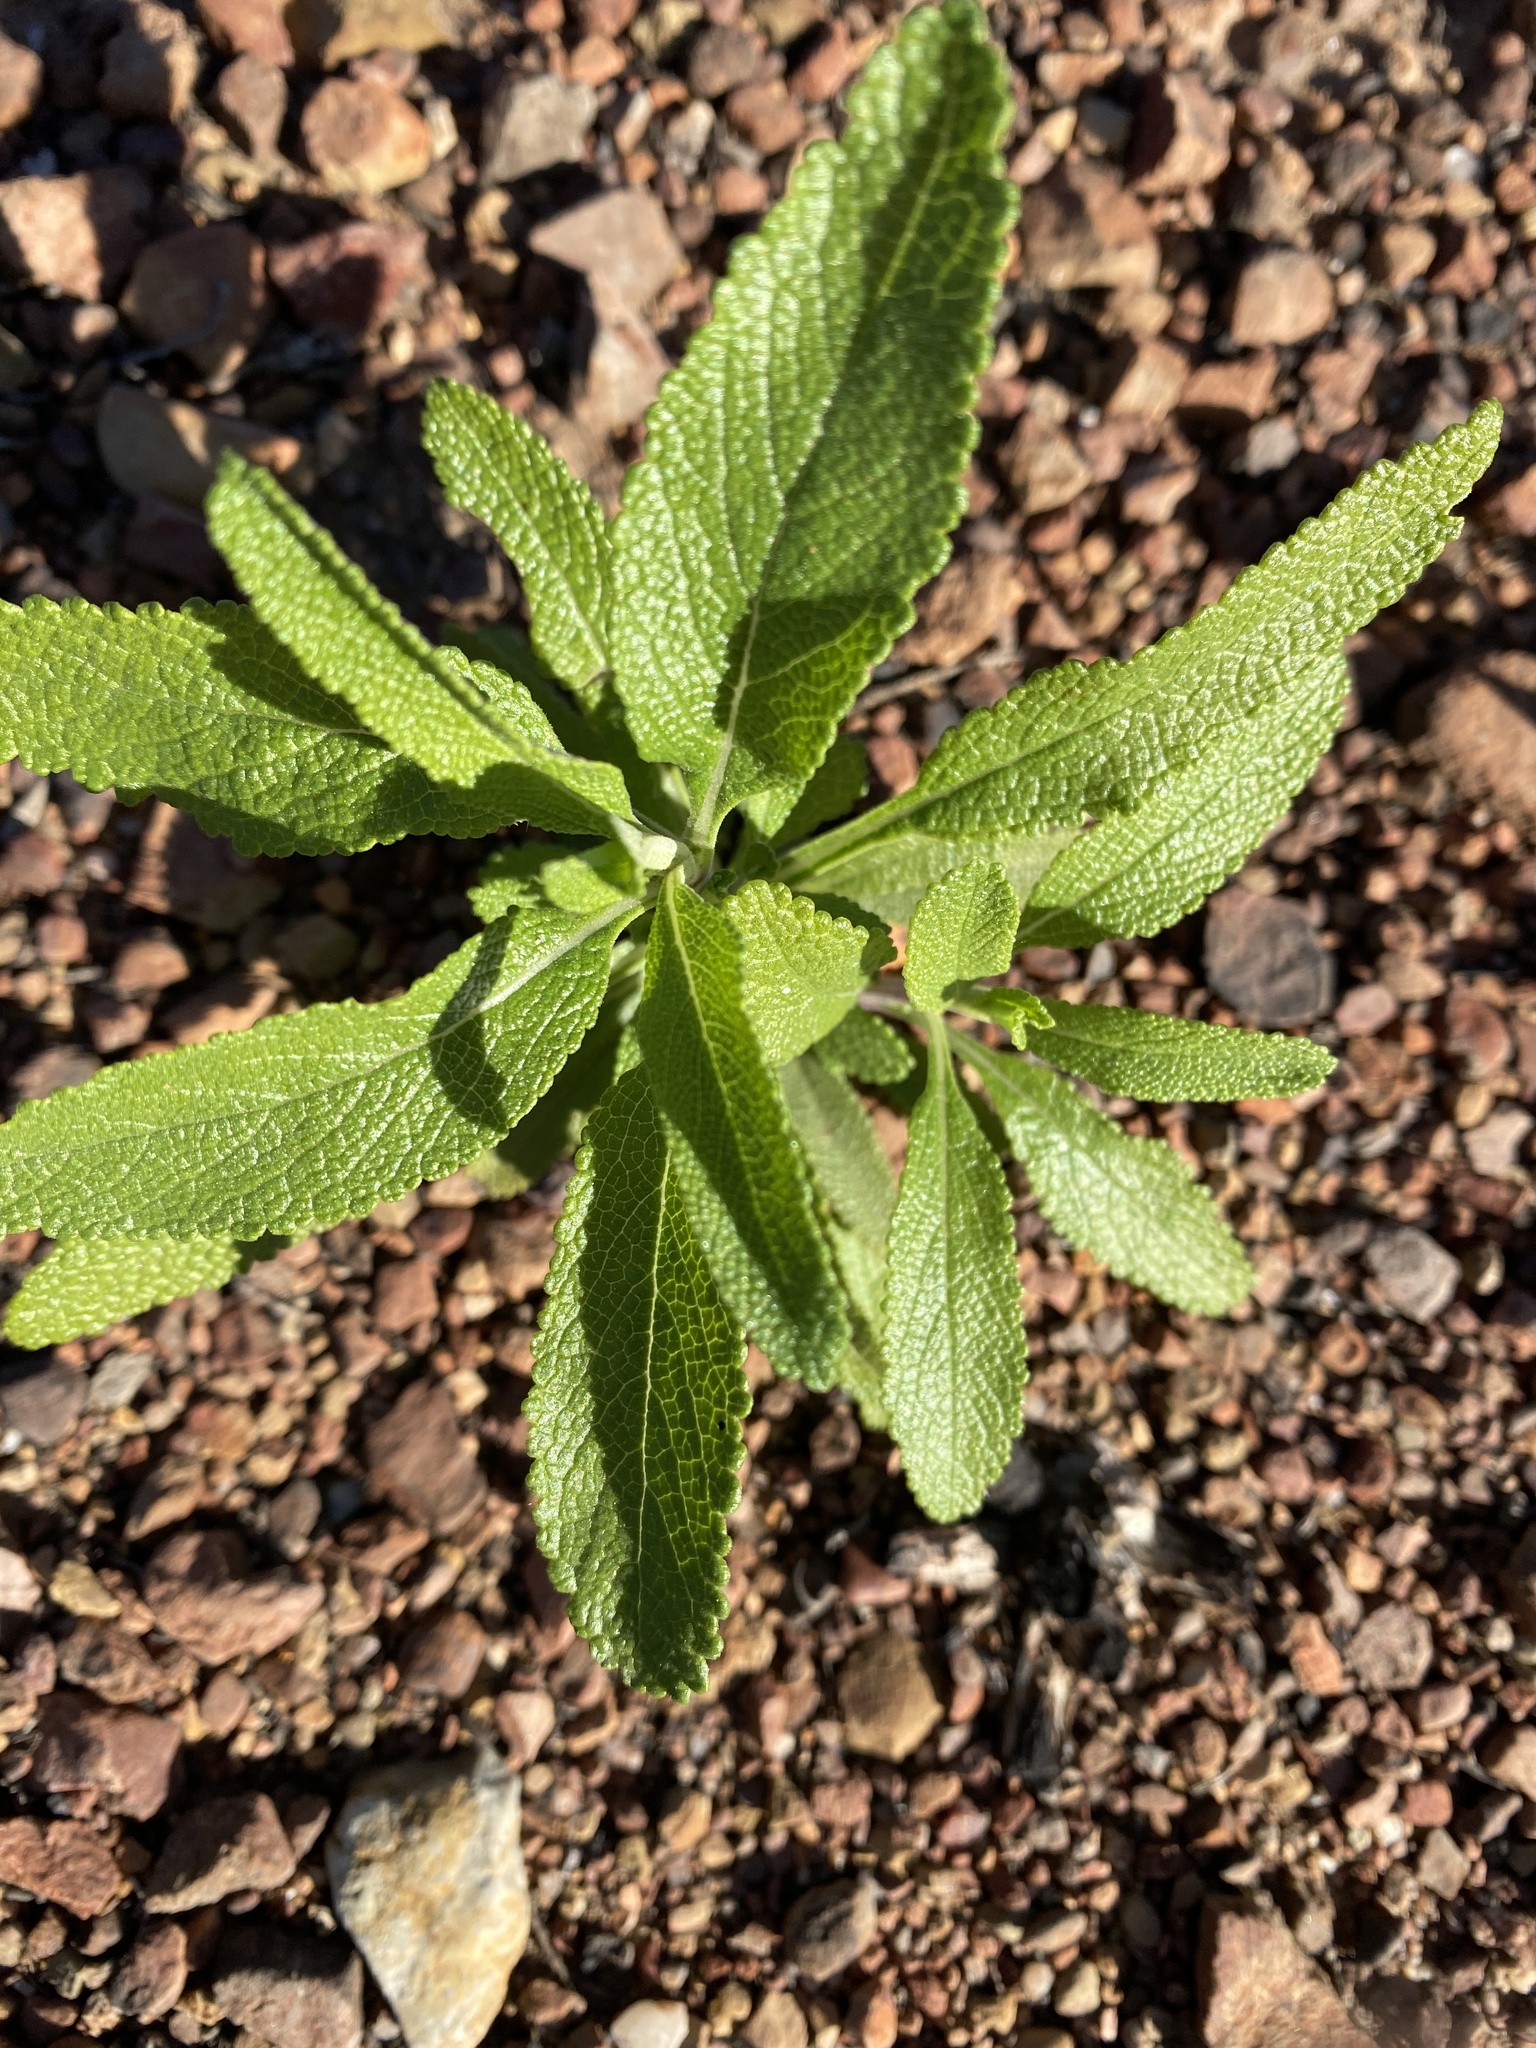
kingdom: Plantae
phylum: Tracheophyta
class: Magnoliopsida
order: Lamiales
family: Lamiaceae
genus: Salvia
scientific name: Salvia mellifera
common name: Black sage
